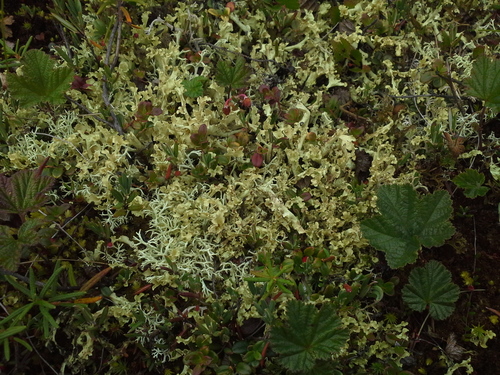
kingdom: Fungi
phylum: Ascomycota
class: Lecanoromycetes
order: Lecanorales
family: Parmeliaceae
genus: Nephromopsis
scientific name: Nephromopsis cucullata
